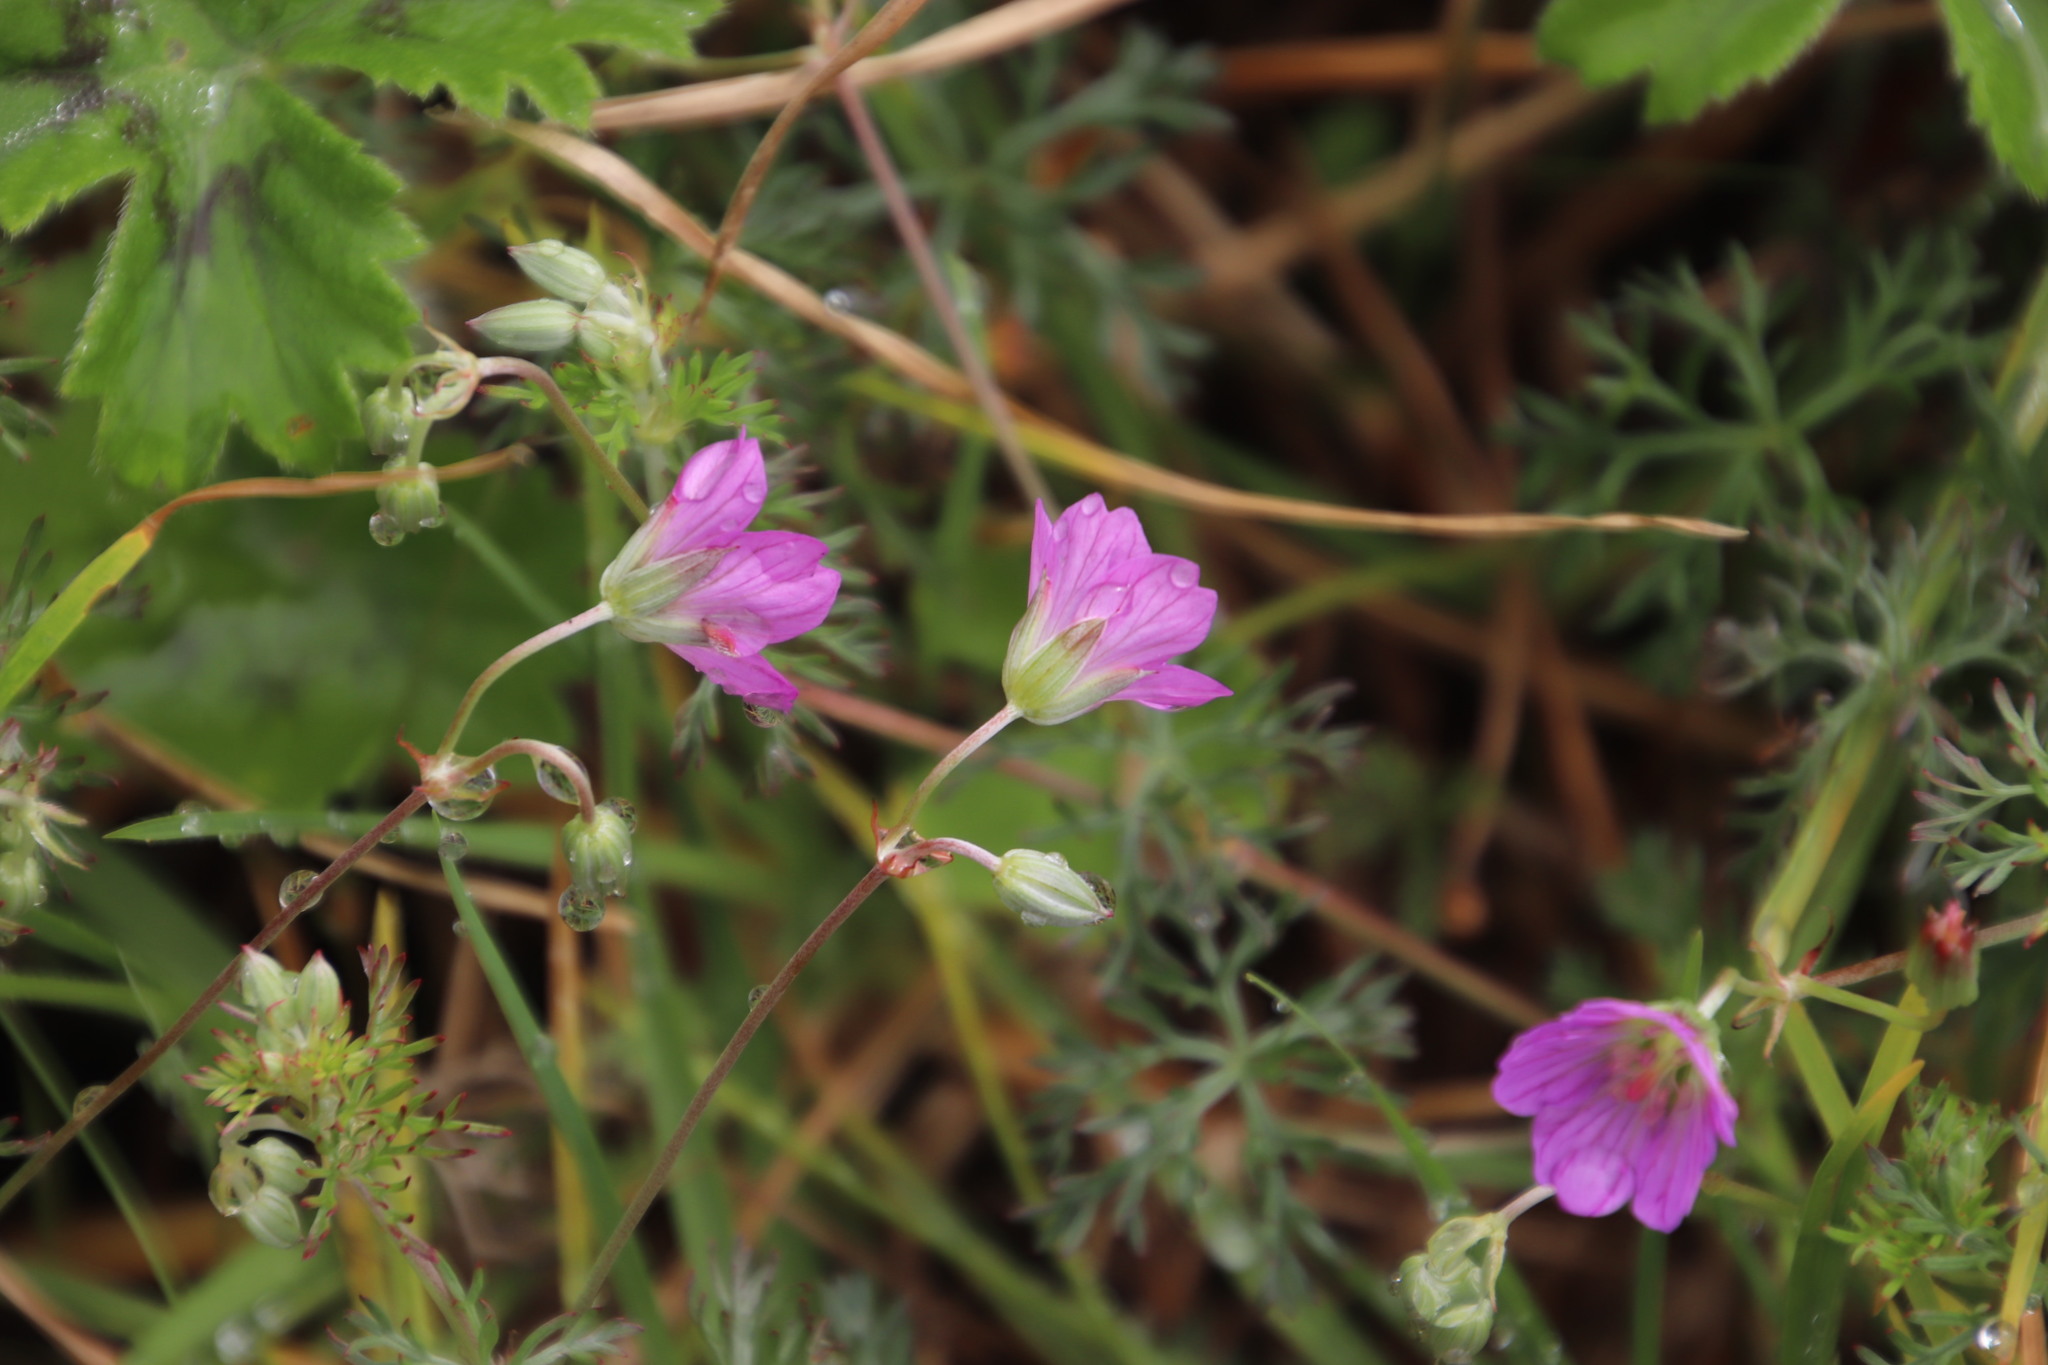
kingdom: Plantae
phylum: Tracheophyta
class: Magnoliopsida
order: Geraniales
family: Geraniaceae
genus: Geranium
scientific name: Geranium incanum
